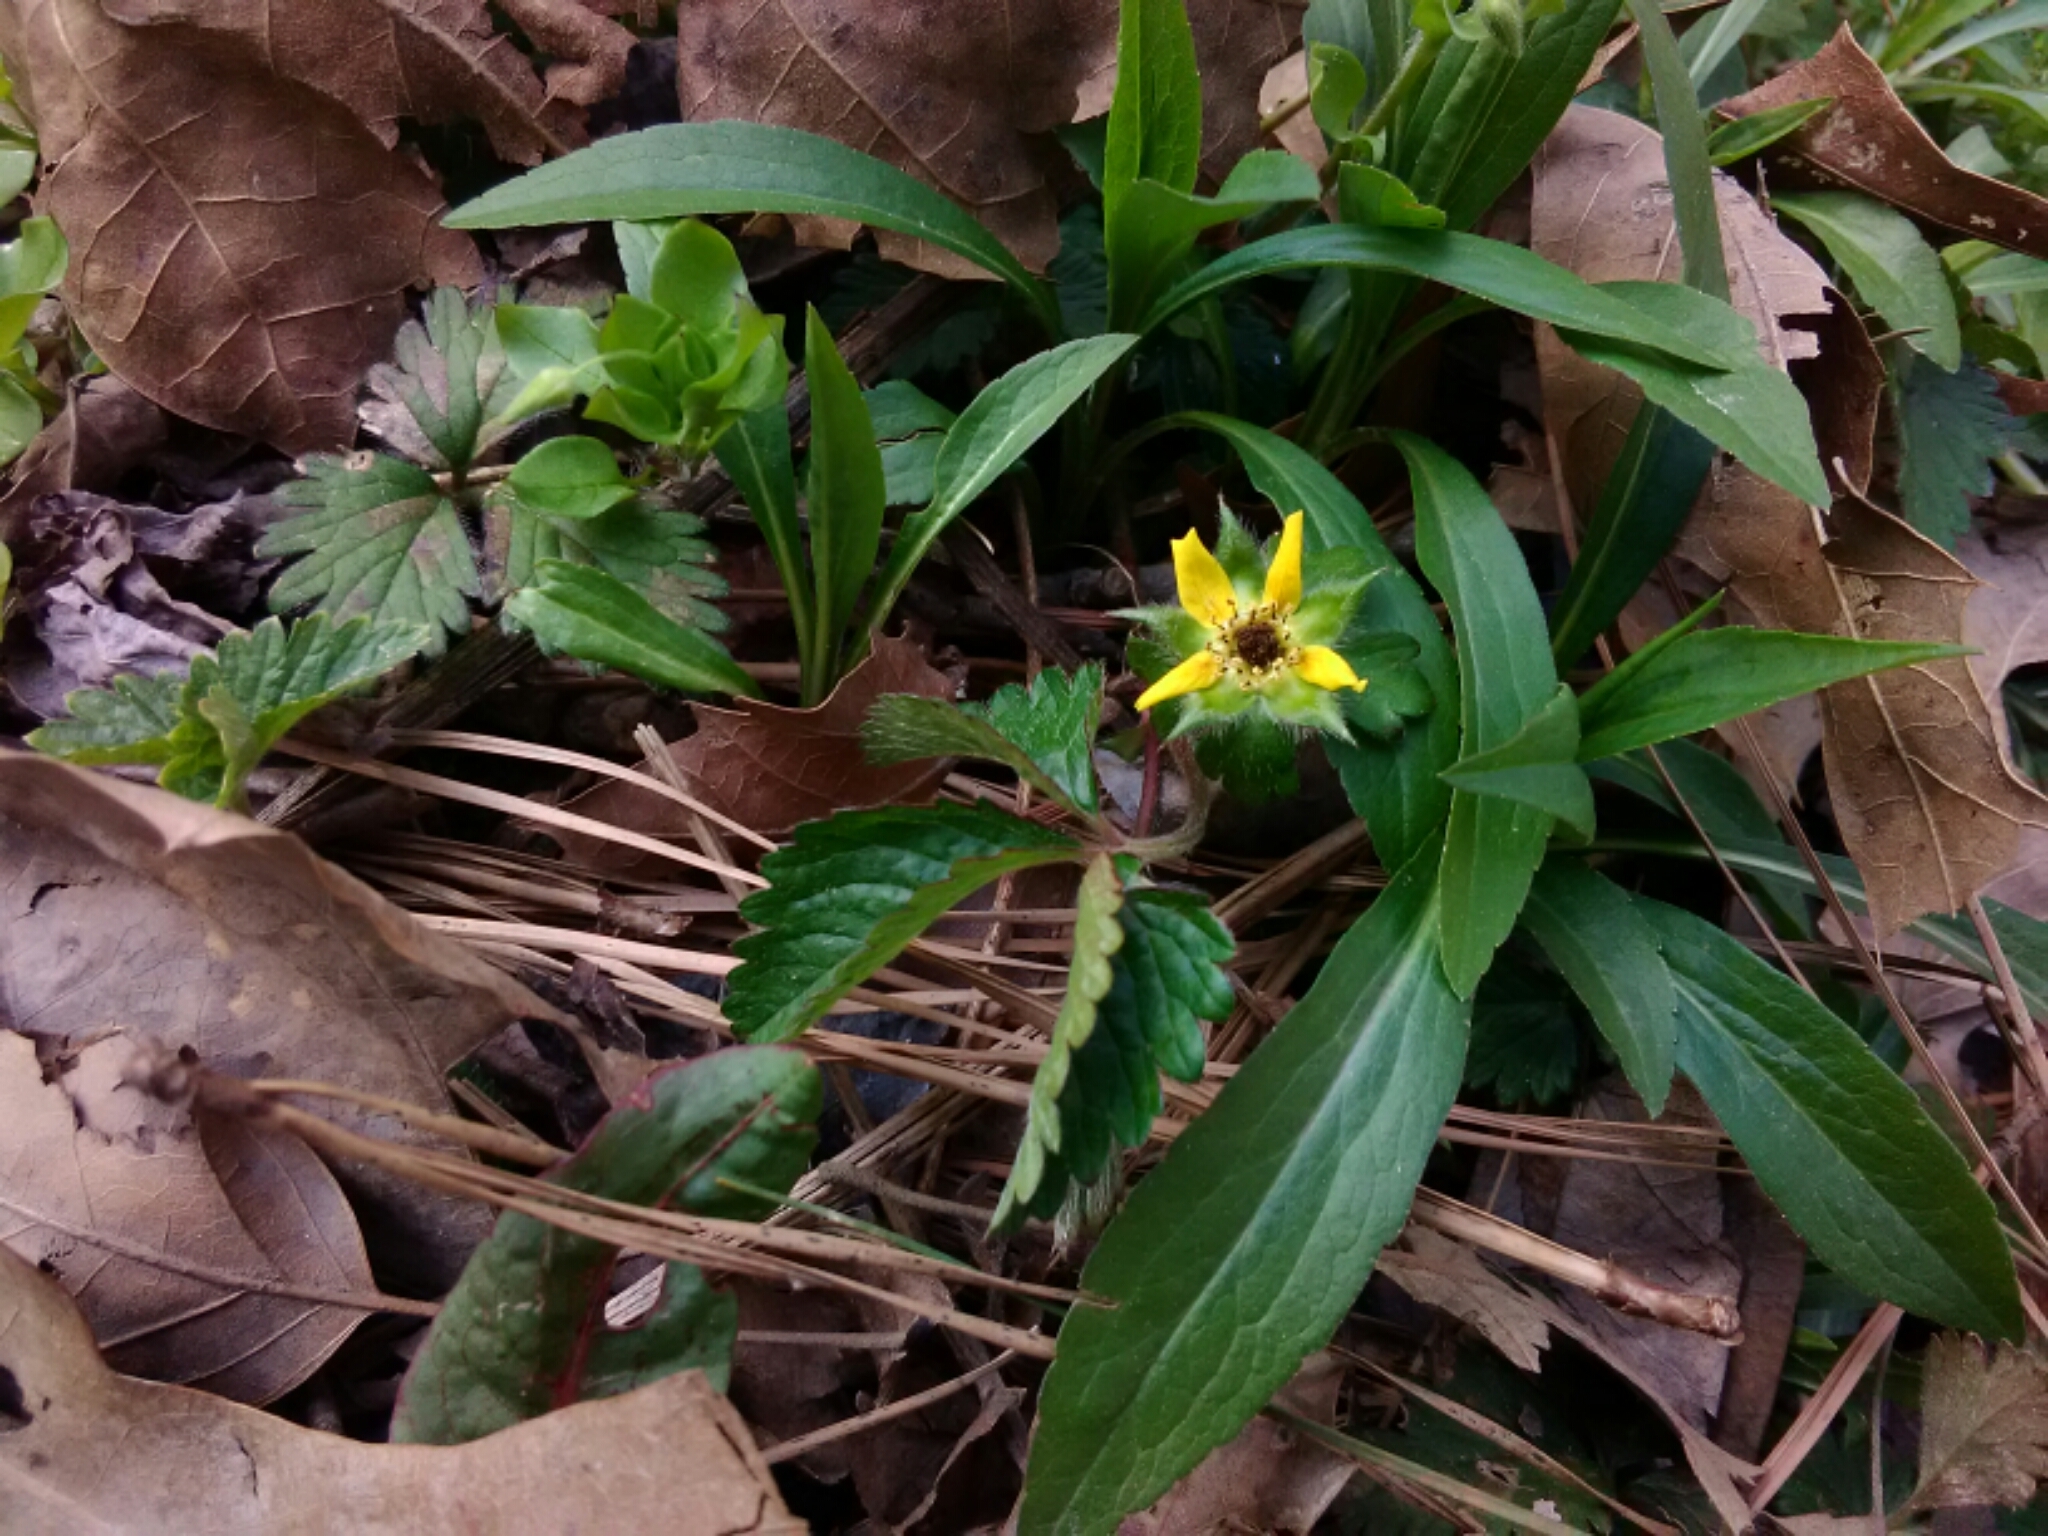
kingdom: Plantae
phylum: Tracheophyta
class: Magnoliopsida
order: Rosales
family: Rosaceae
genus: Potentilla
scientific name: Potentilla indica
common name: Yellow-flowered strawberry
